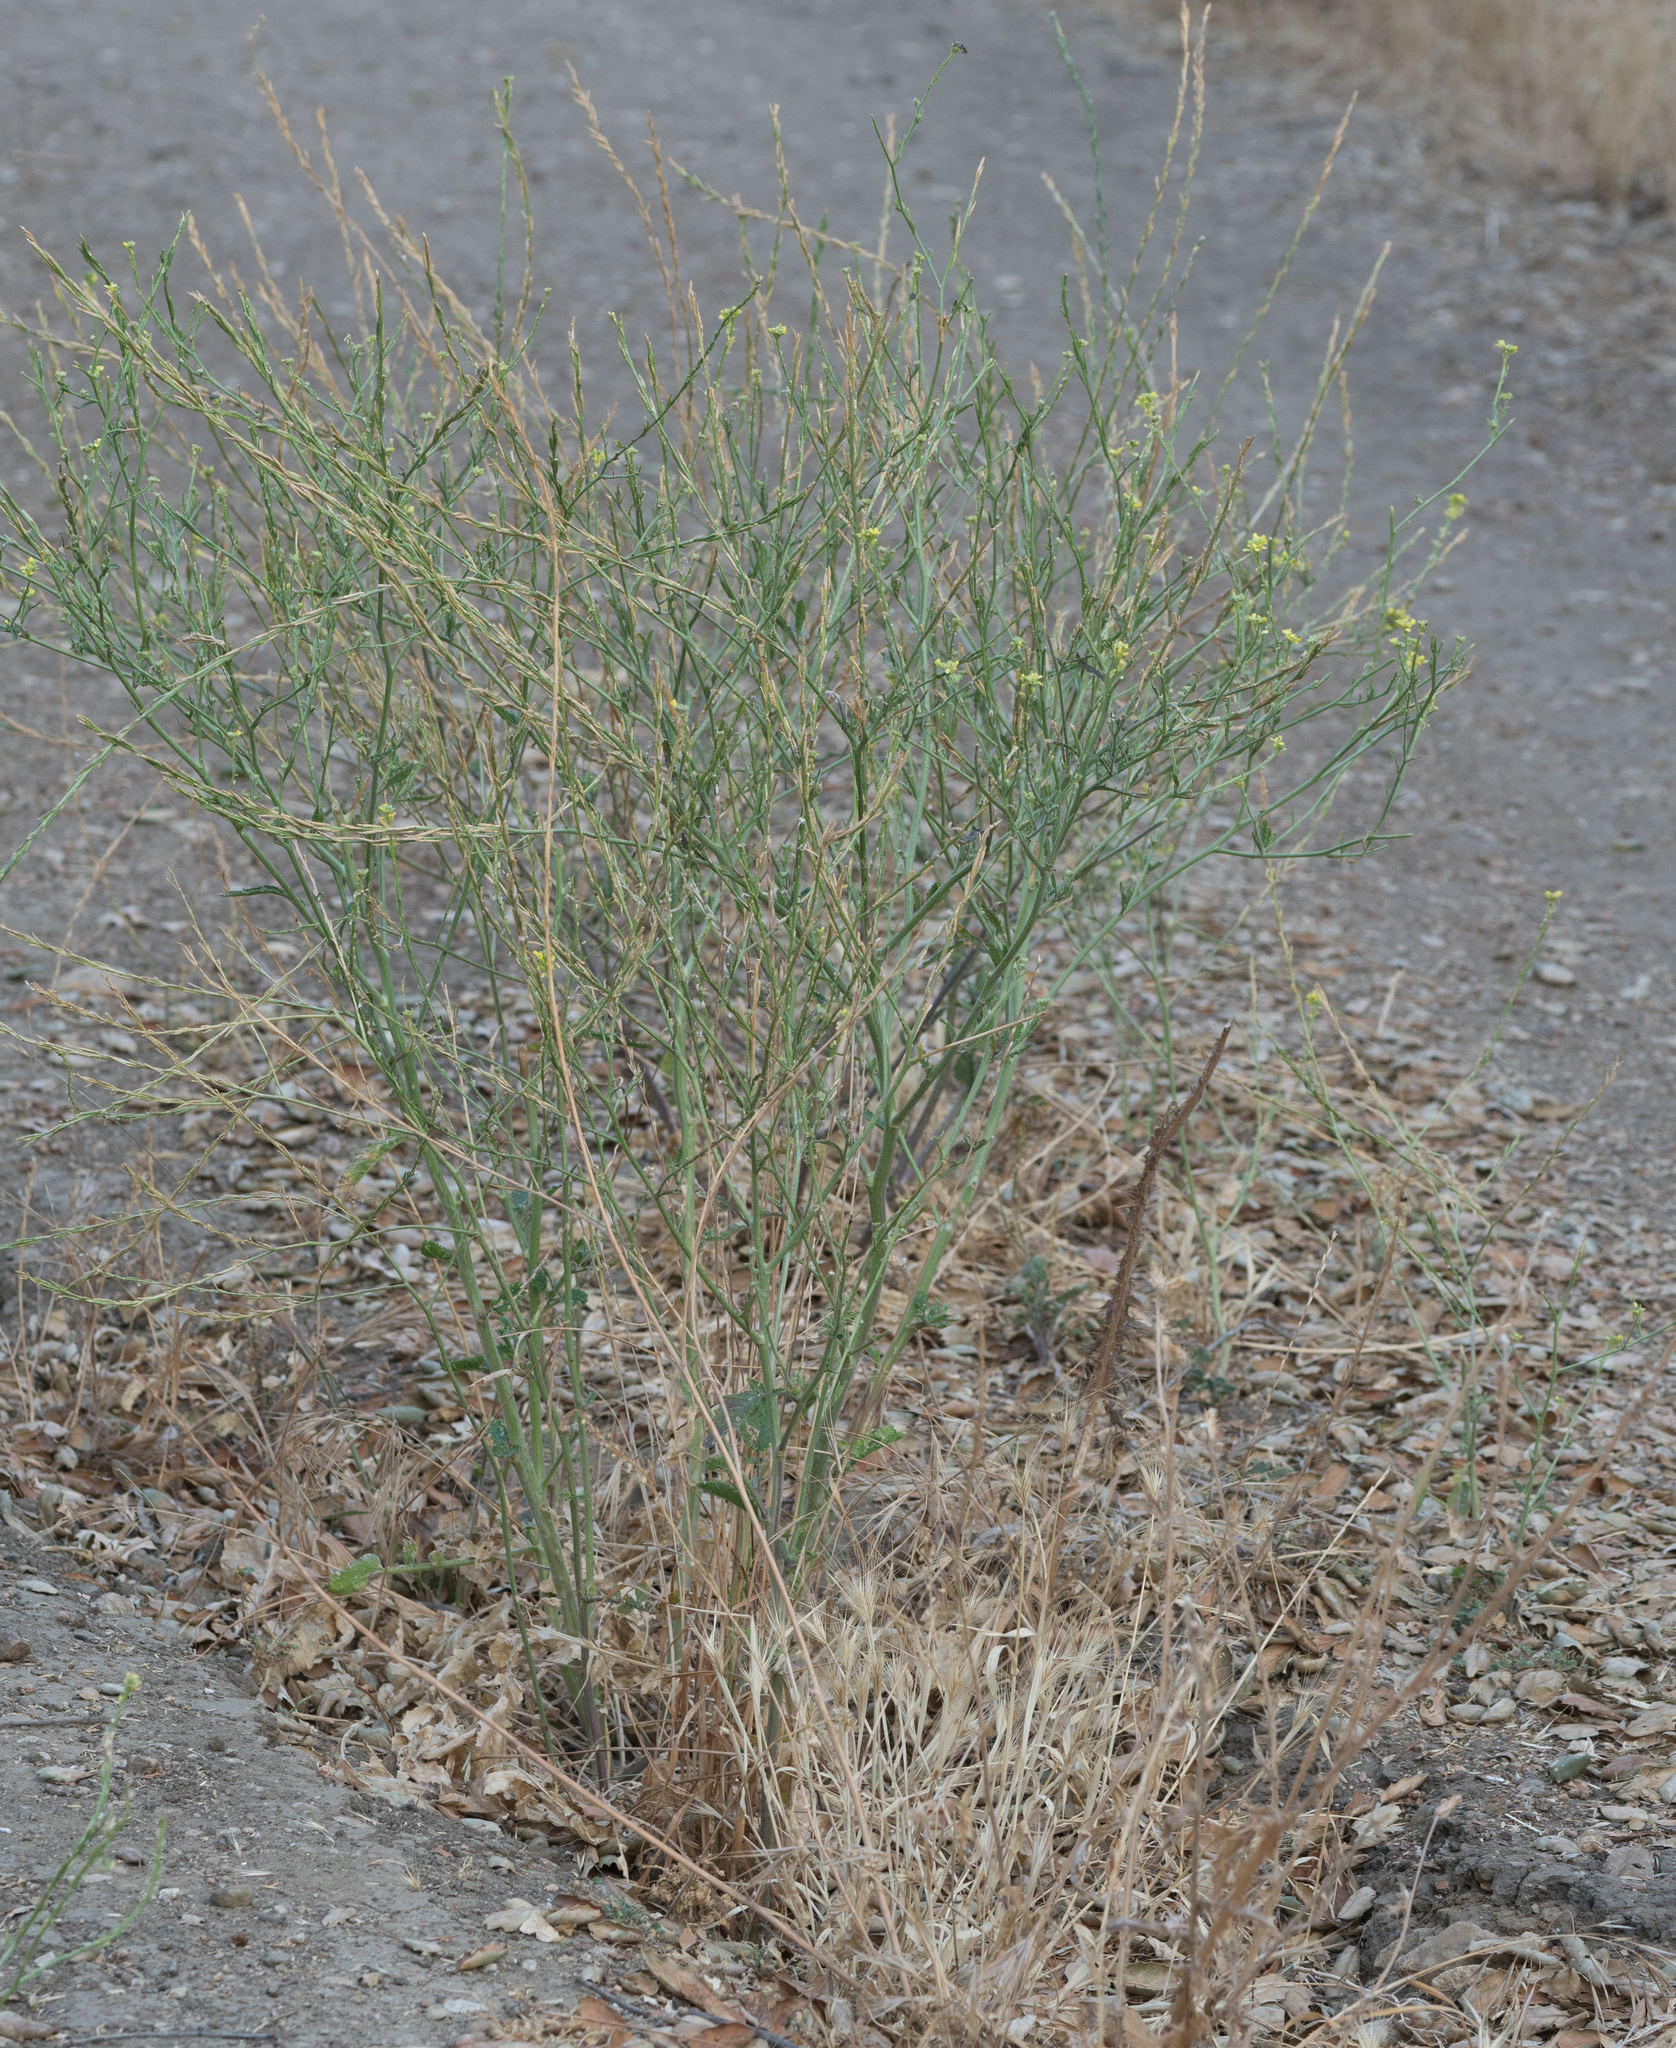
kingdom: Plantae
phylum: Tracheophyta
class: Magnoliopsida
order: Brassicales
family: Brassicaceae
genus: Hirschfeldia
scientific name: Hirschfeldia incana
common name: Hoary mustard
